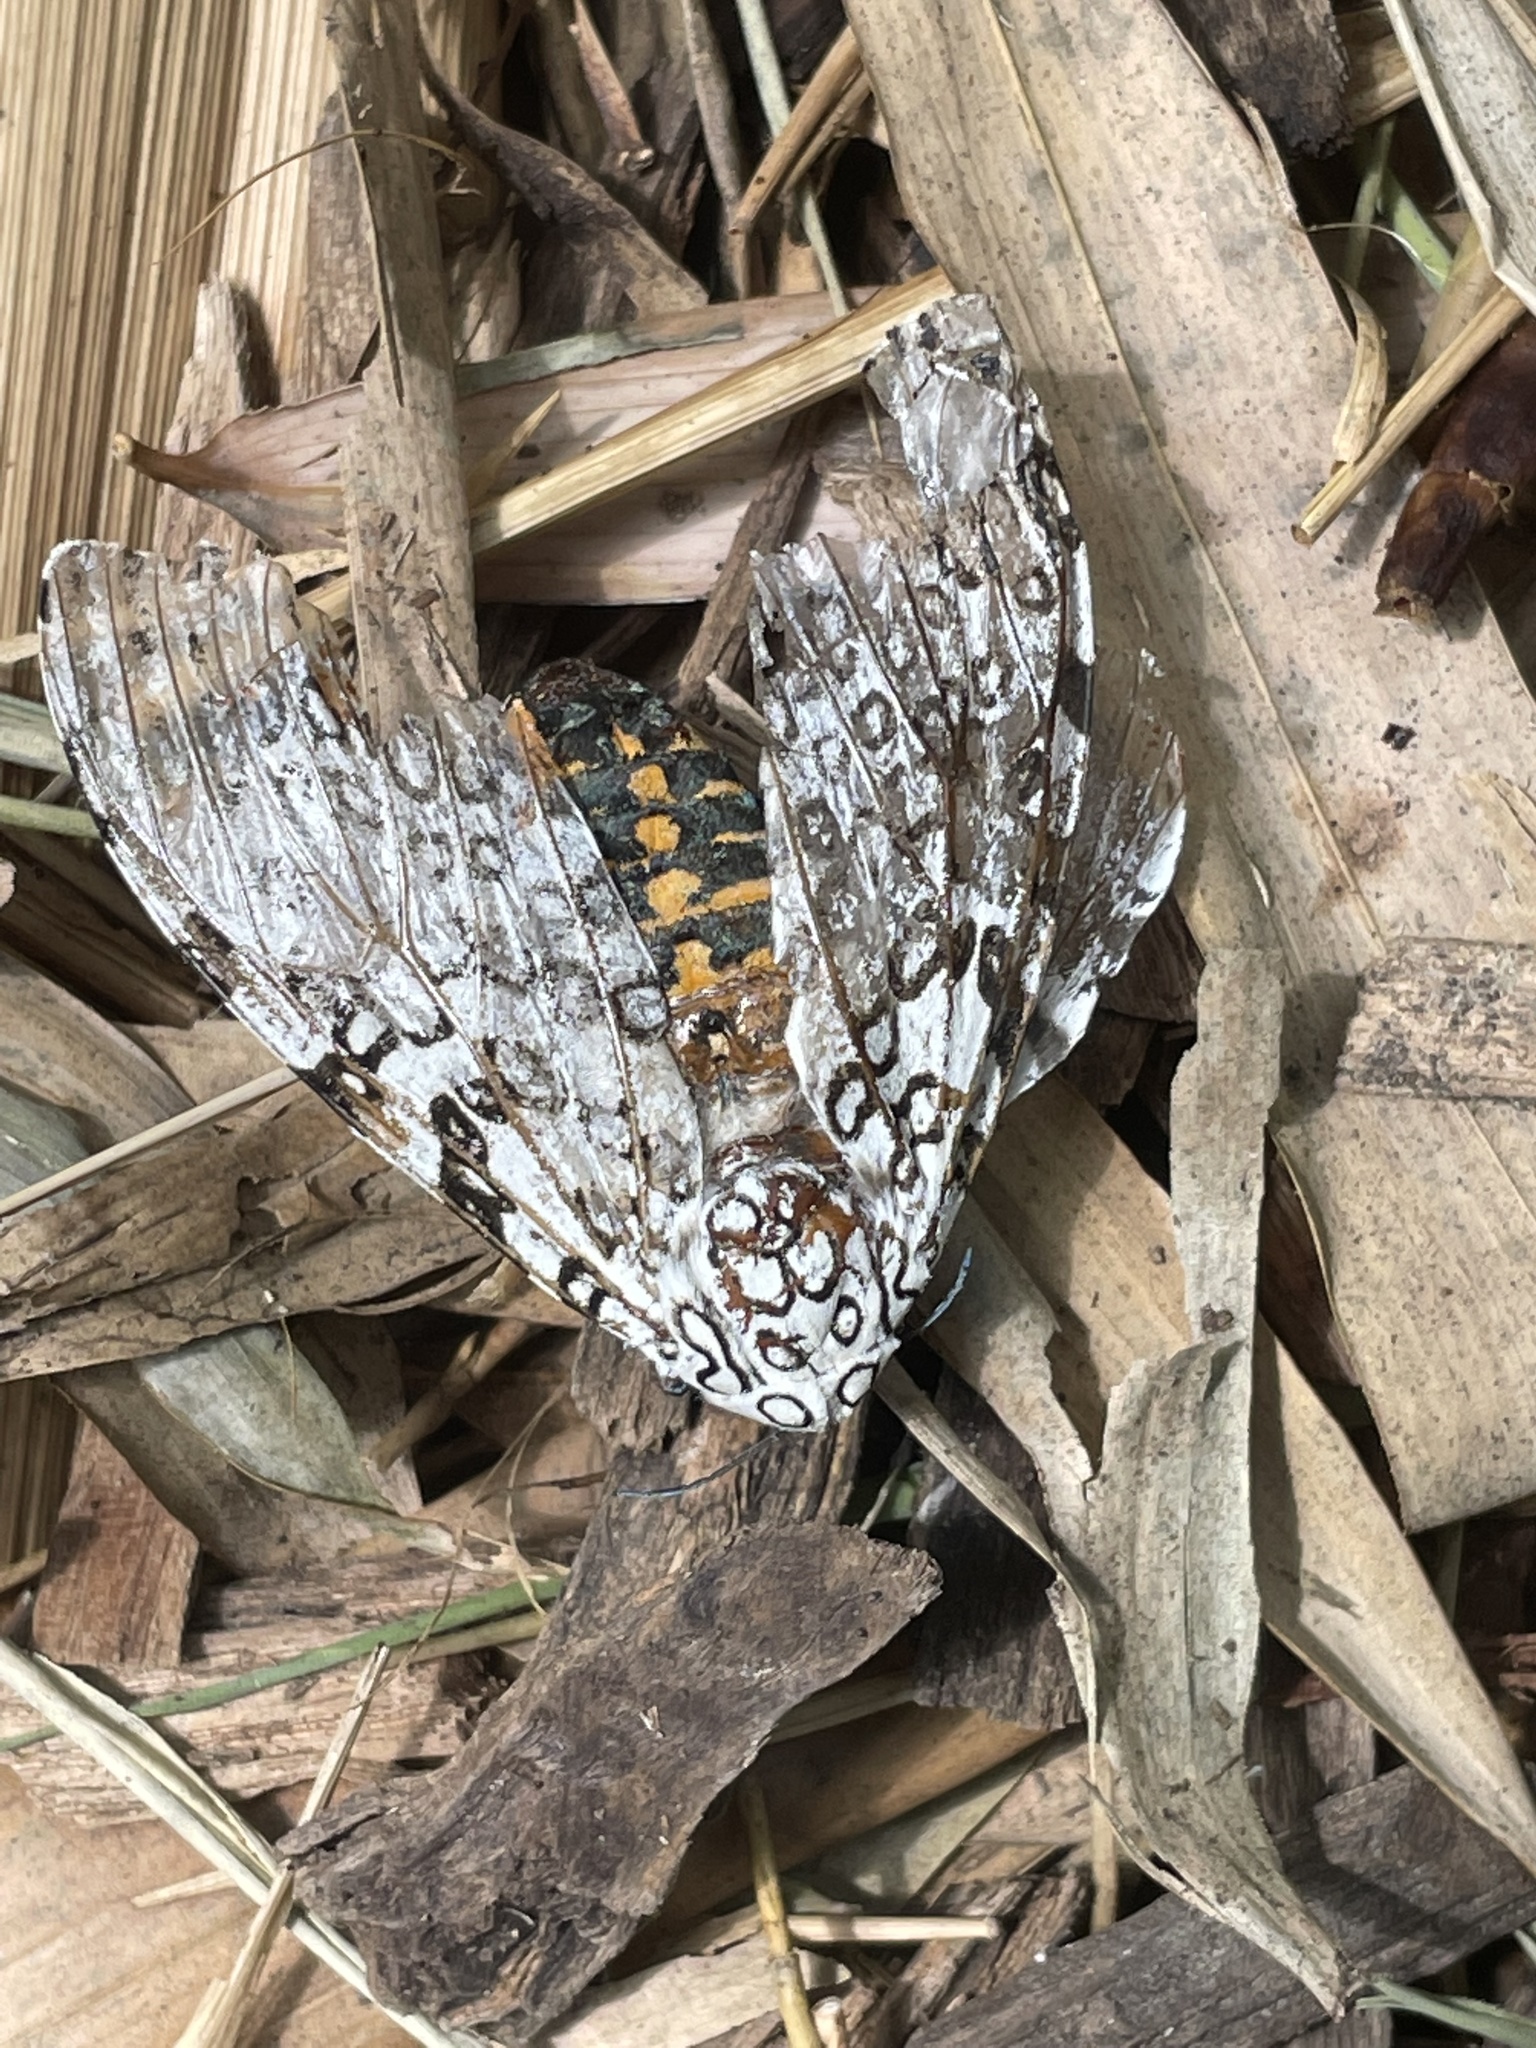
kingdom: Animalia
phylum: Arthropoda
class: Insecta
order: Lepidoptera
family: Erebidae
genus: Hypercompe
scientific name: Hypercompe scribonia
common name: Giant leopard moth
